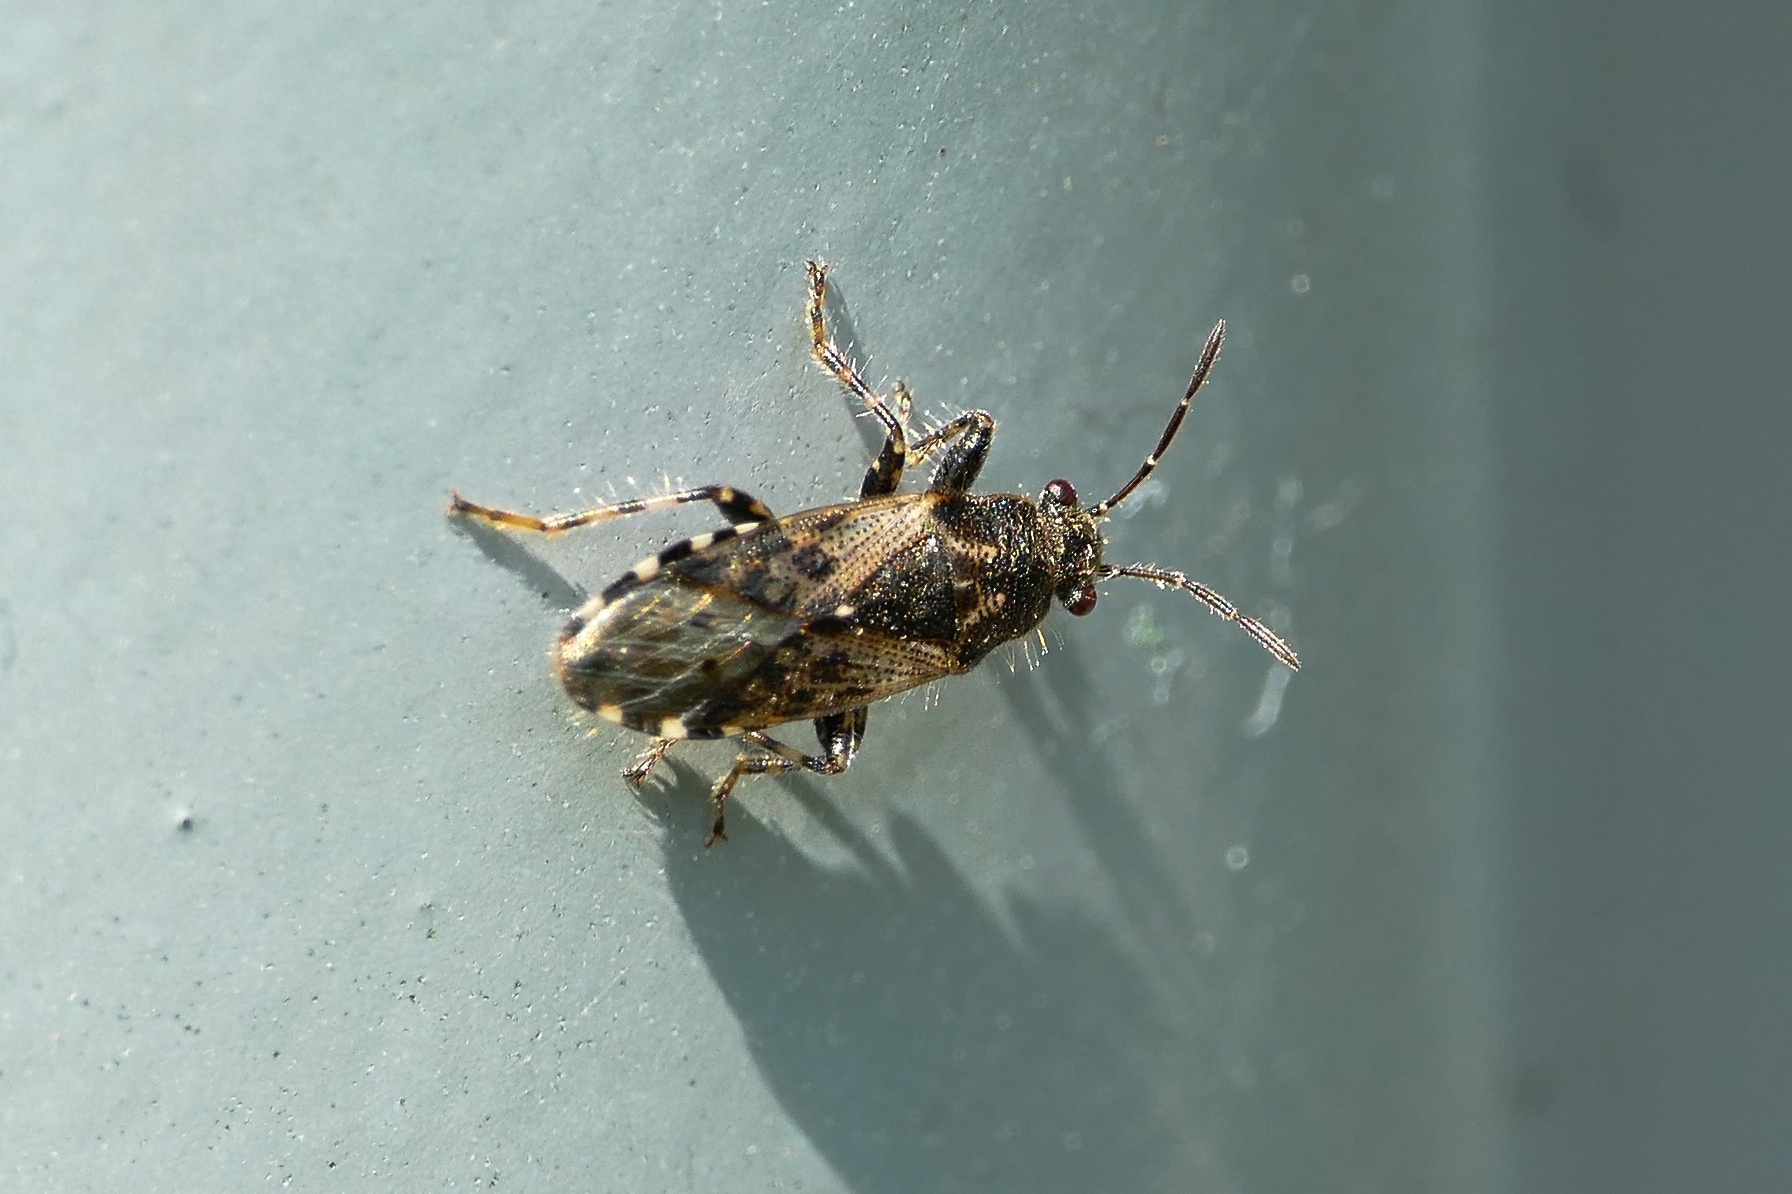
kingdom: Animalia
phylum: Arthropoda
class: Insecta
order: Hemiptera
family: Heterogastridae
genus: Heterogaster
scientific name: Heterogaster urticae
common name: Seed bug
